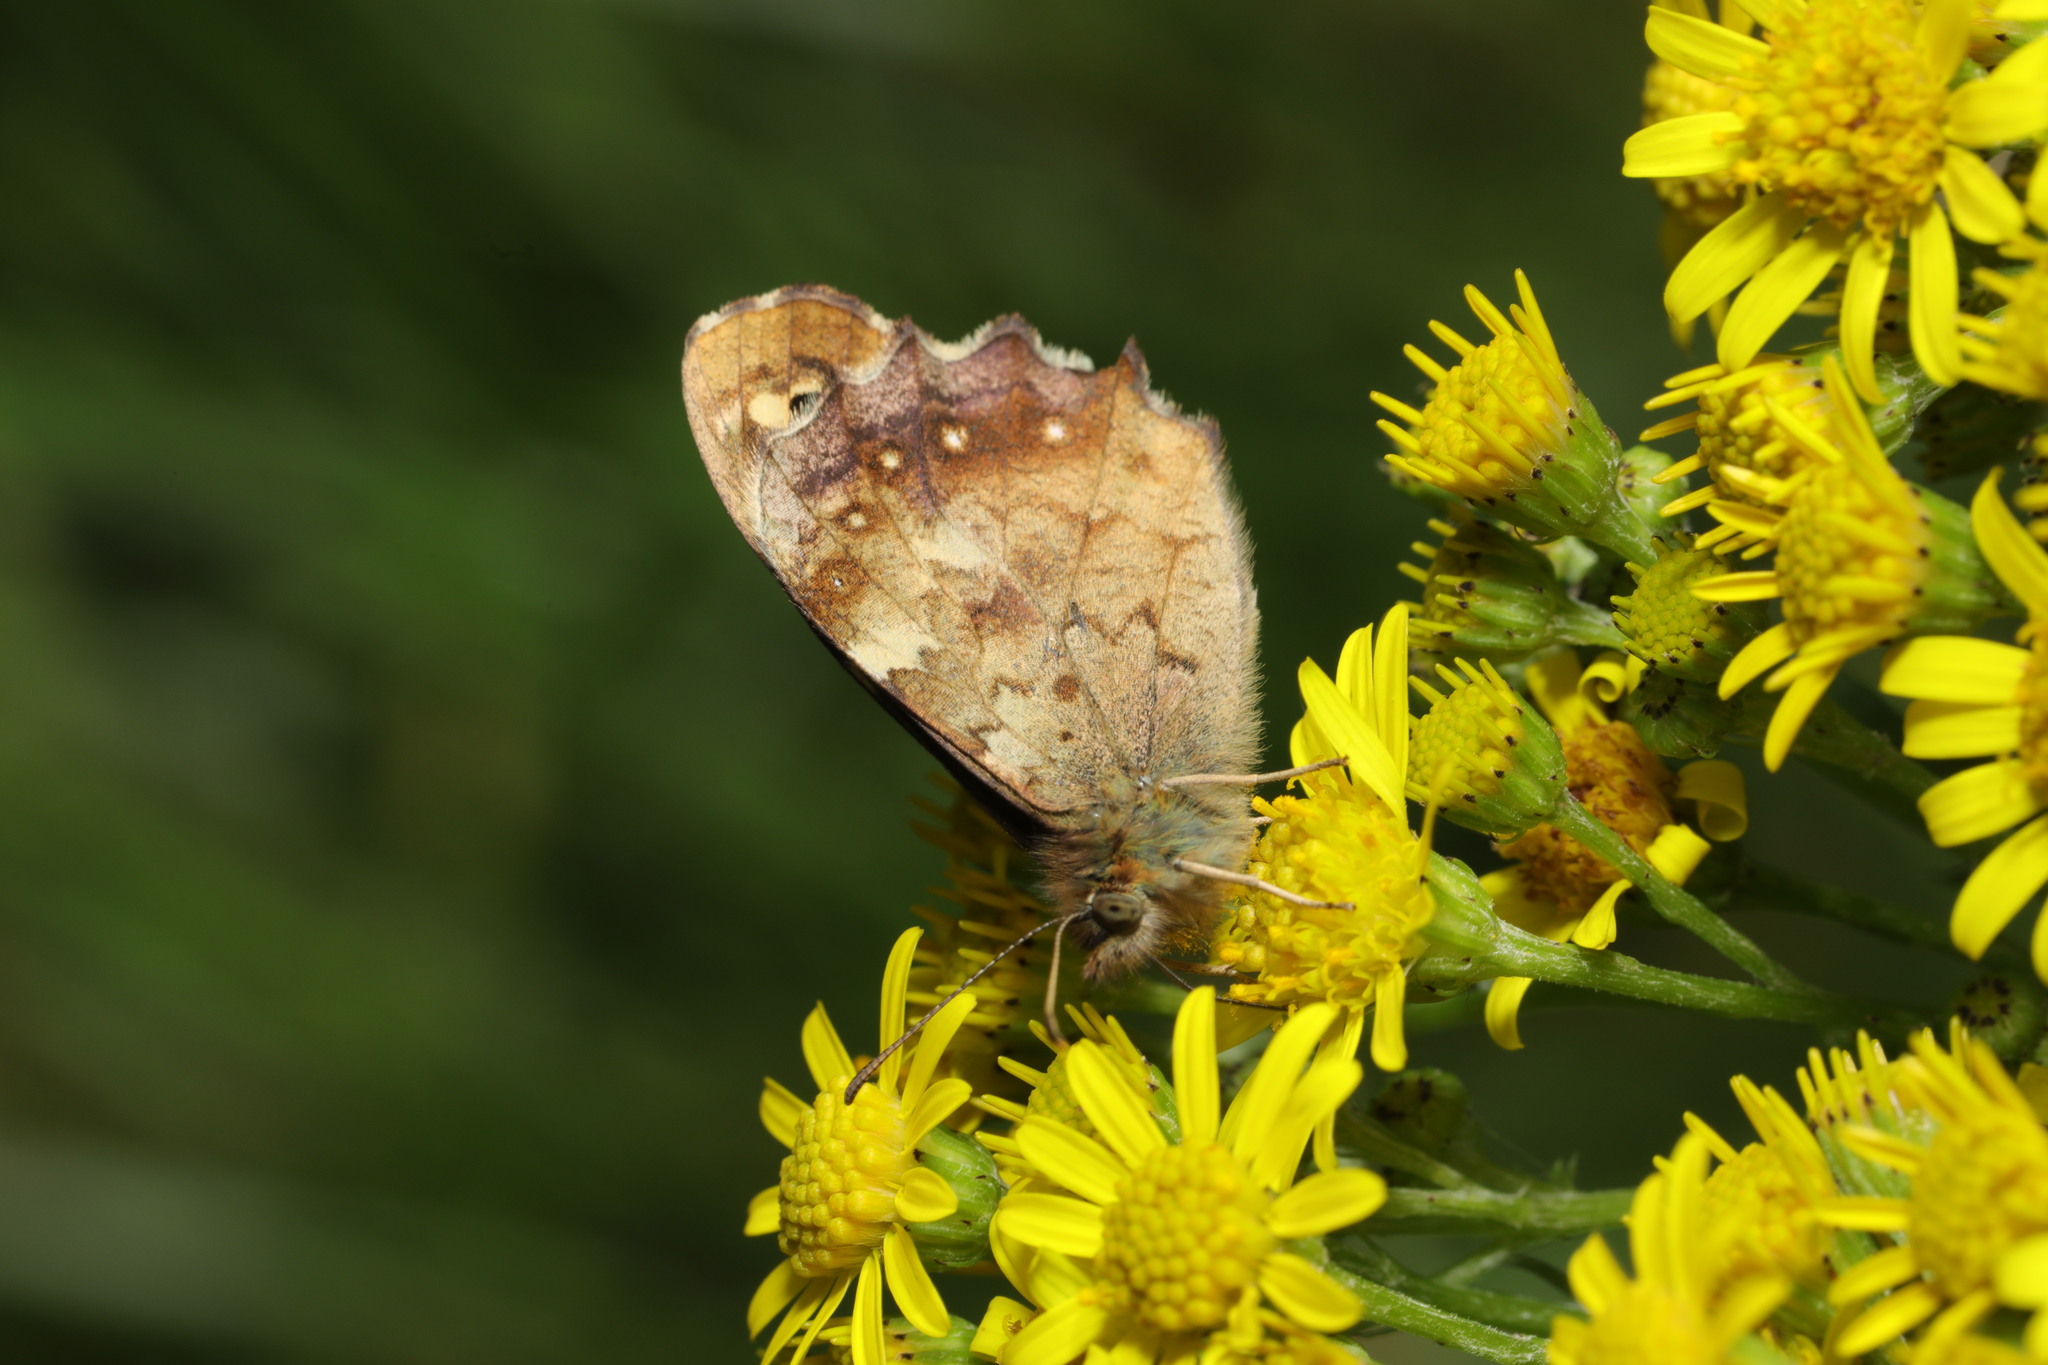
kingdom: Animalia
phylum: Arthropoda
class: Insecta
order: Lepidoptera
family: Nymphalidae
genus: Pararge
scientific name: Pararge aegeria
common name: Speckled wood
